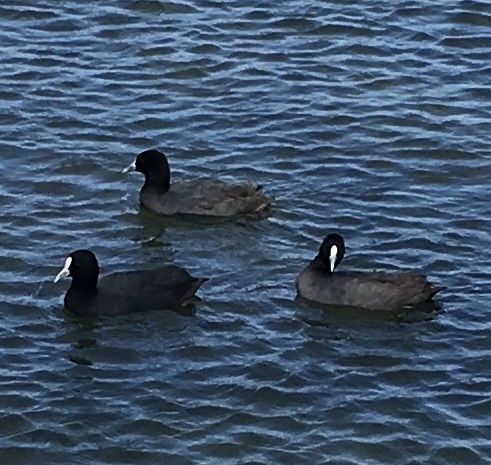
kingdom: Animalia
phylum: Chordata
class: Aves
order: Gruiformes
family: Rallidae
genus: Fulica
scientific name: Fulica atra
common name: Eurasian coot
